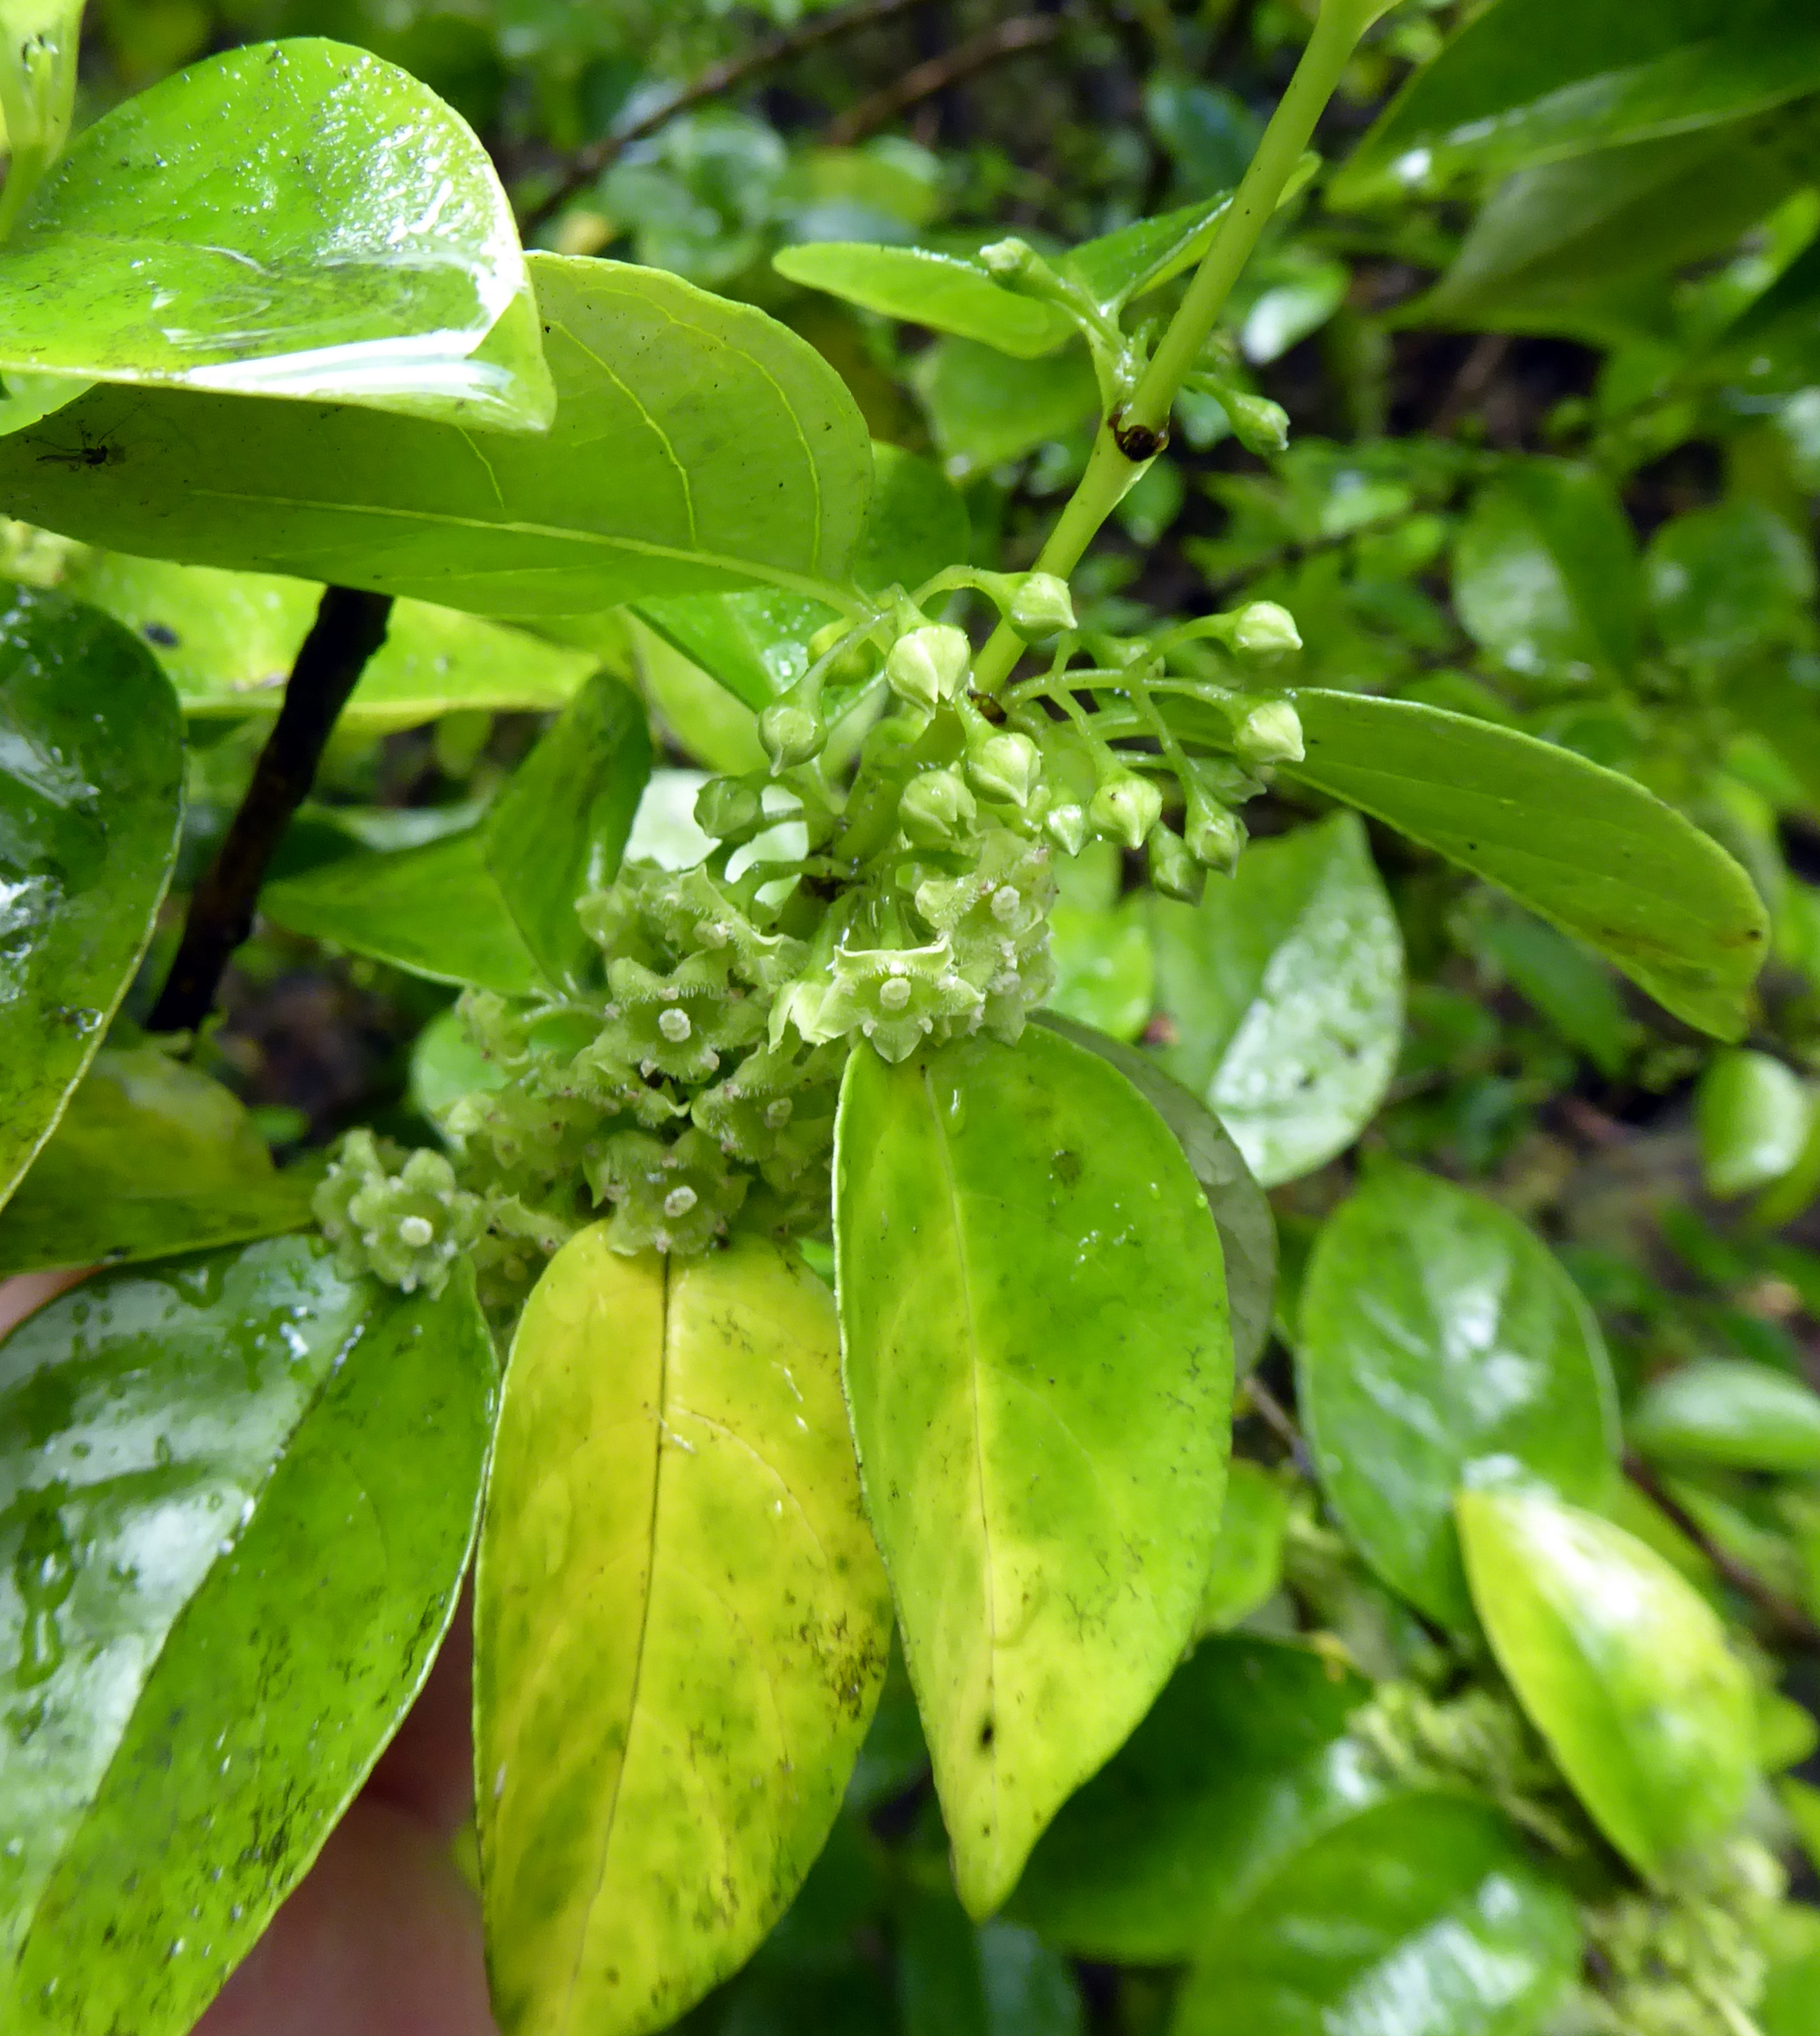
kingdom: Plantae
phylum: Tracheophyta
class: Magnoliopsida
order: Gentianales
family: Loganiaceae
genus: Geniostoma
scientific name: Geniostoma ligustrifolium
